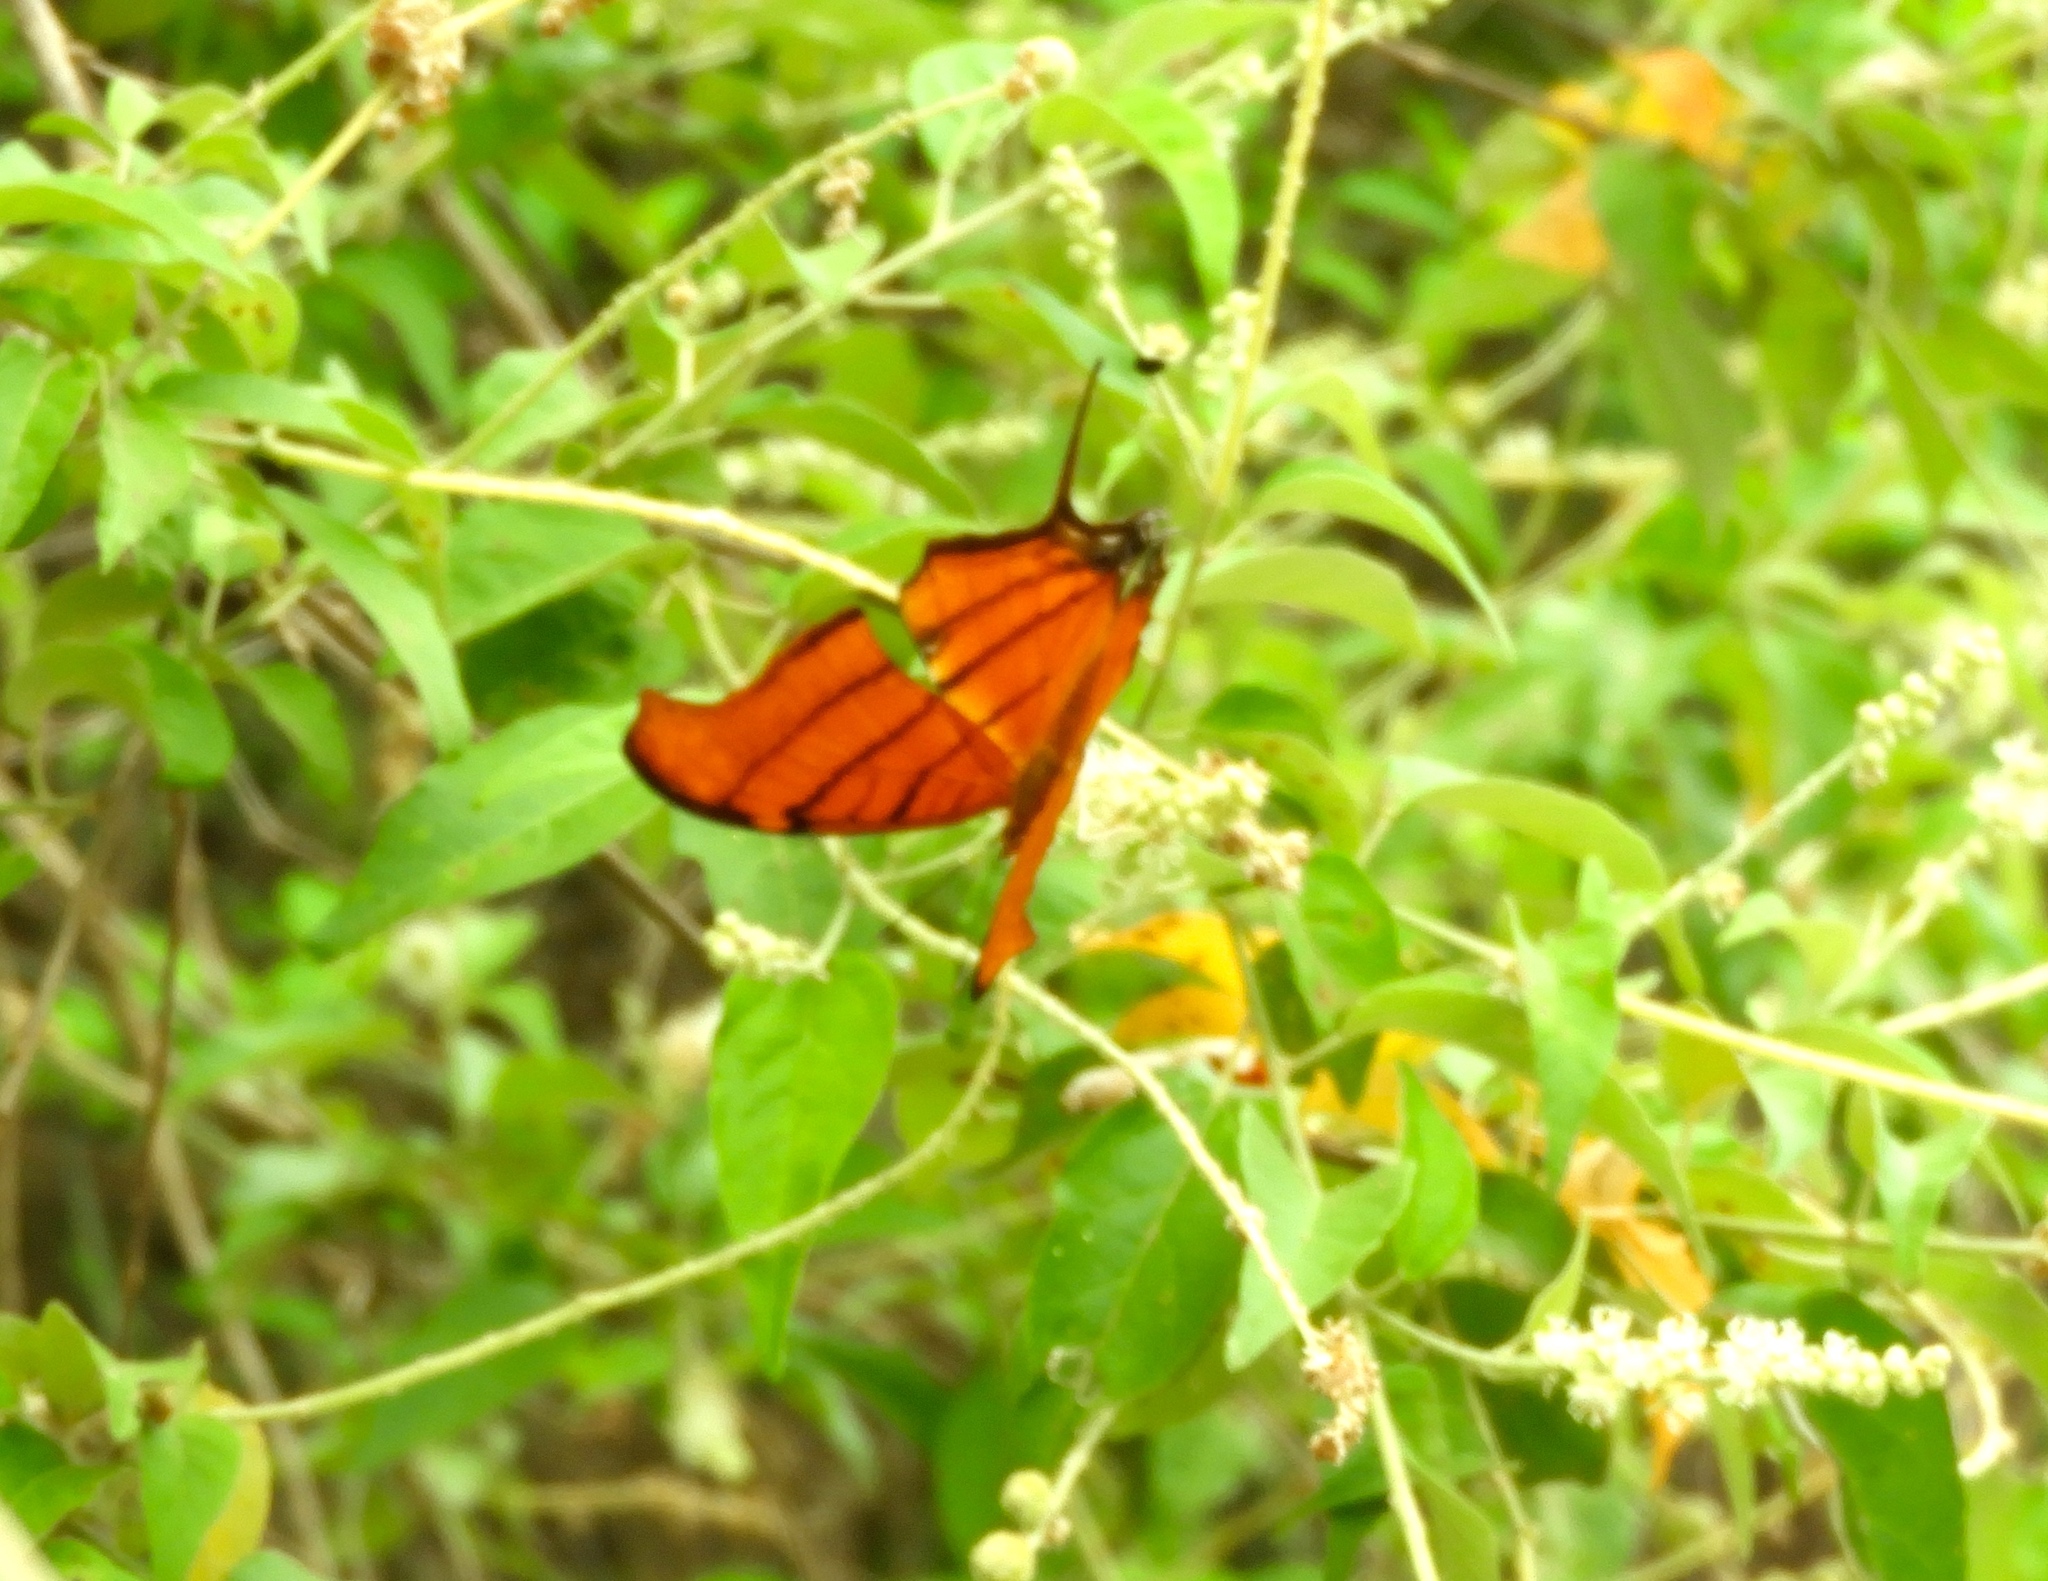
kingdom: Animalia
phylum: Arthropoda
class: Insecta
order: Lepidoptera
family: Nymphalidae
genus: Marpesia
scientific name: Marpesia petreus
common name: Red dagger wing
